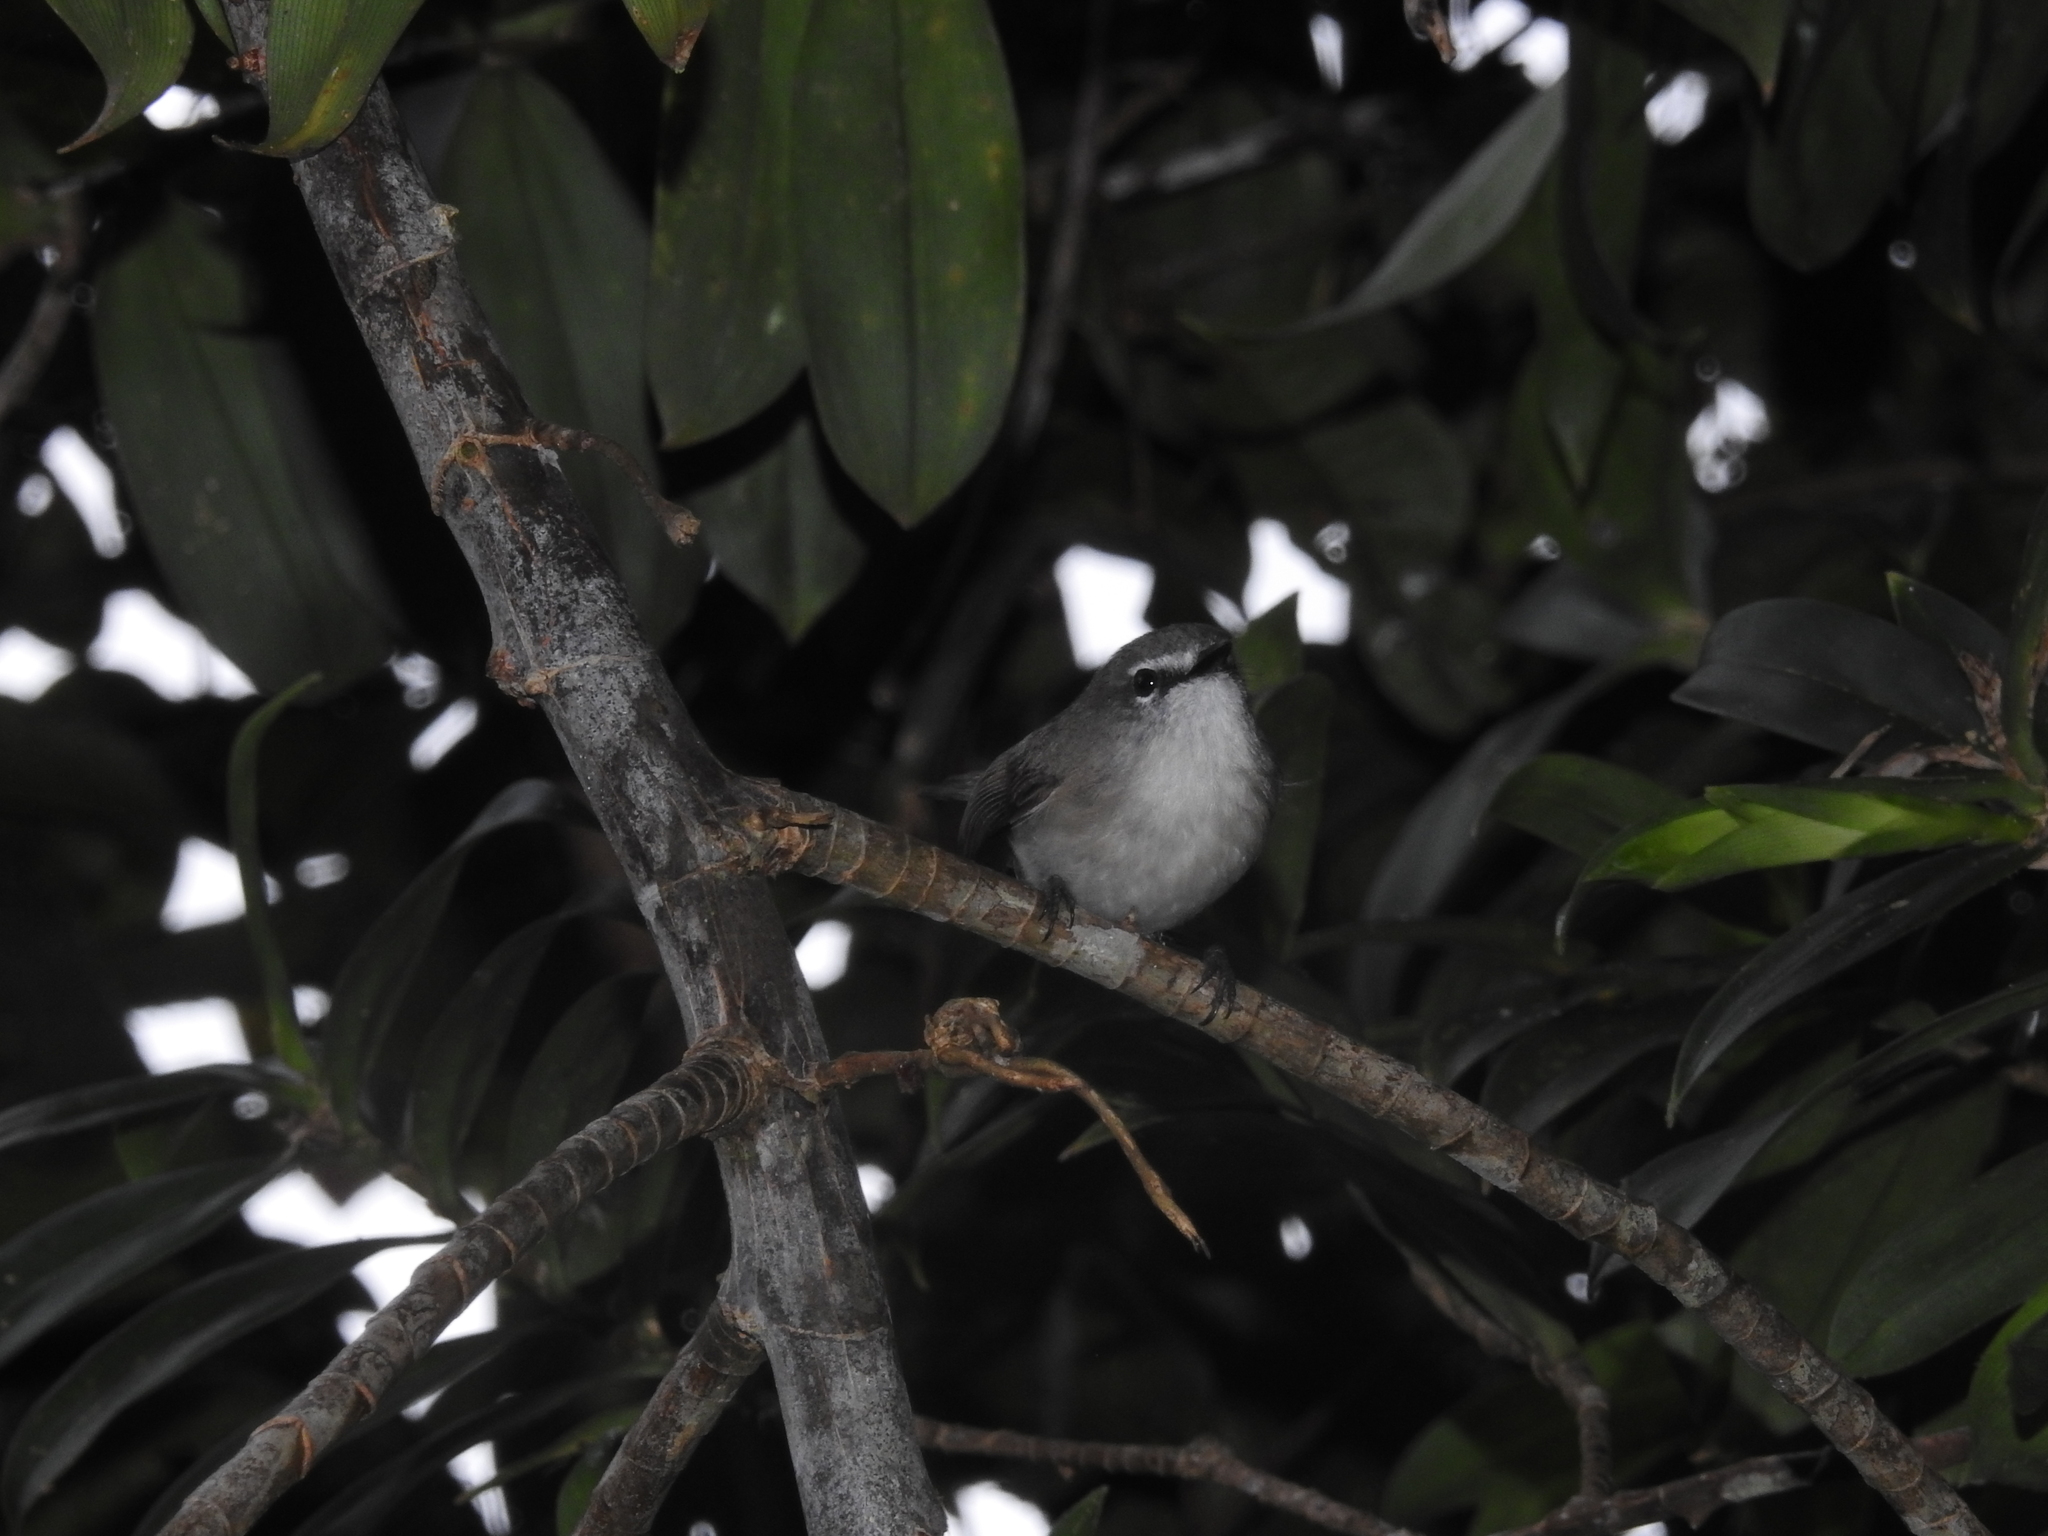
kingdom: Animalia
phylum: Chordata
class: Aves
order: Passeriformes
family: Acanthizidae
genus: Gerygone
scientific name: Gerygone mouki
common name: Brown gerygone
